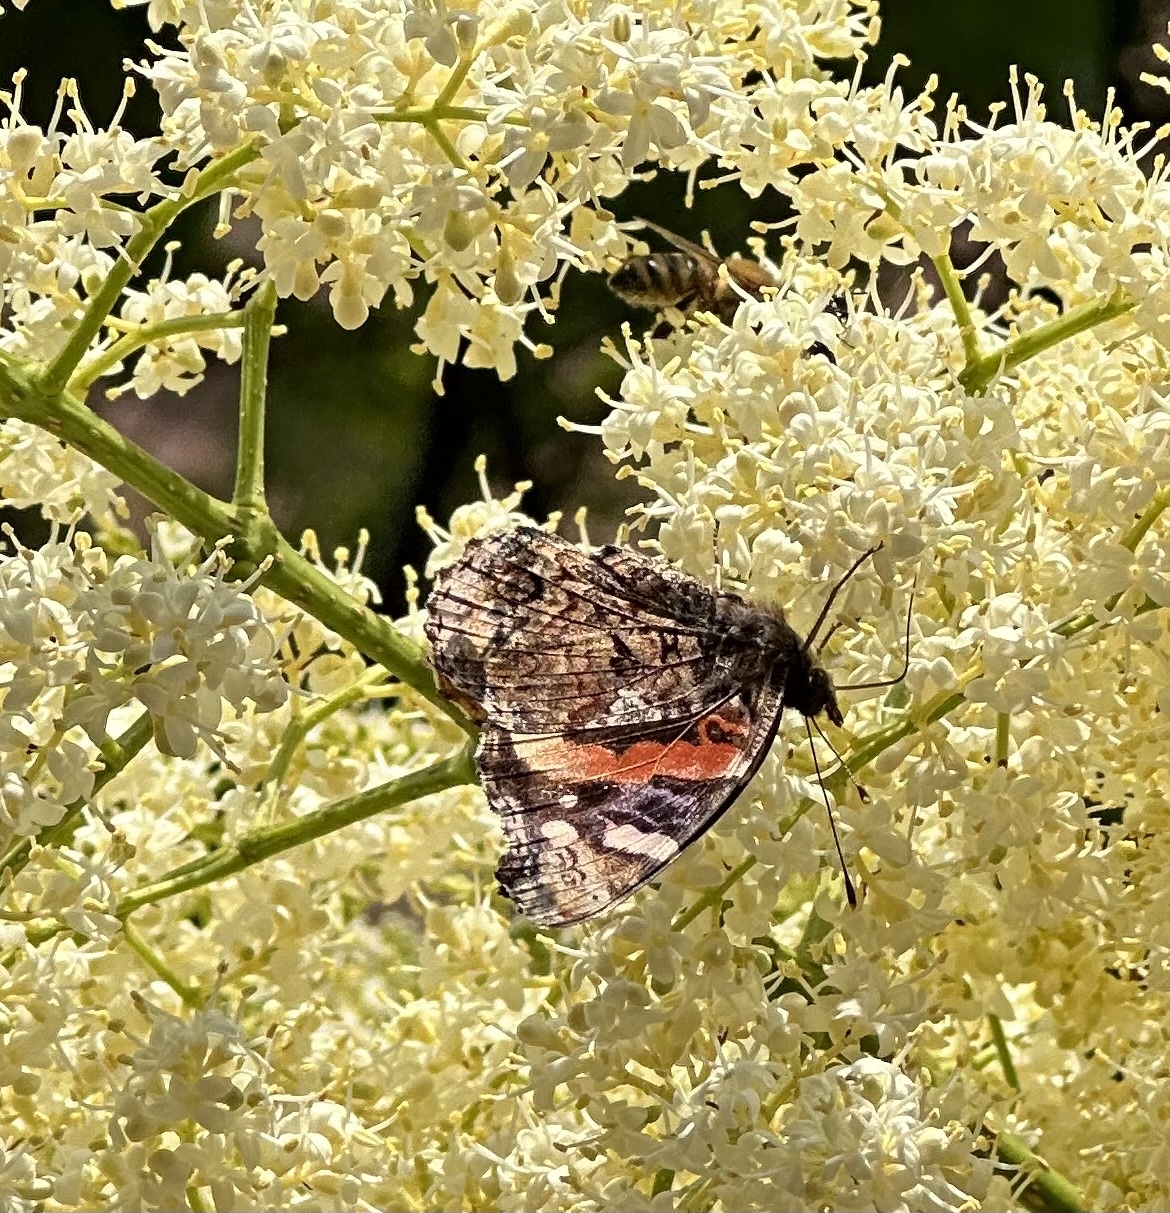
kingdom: Animalia
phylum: Arthropoda
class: Insecta
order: Lepidoptera
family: Nymphalidae
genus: Vanessa
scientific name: Vanessa atalanta
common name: Red admiral
